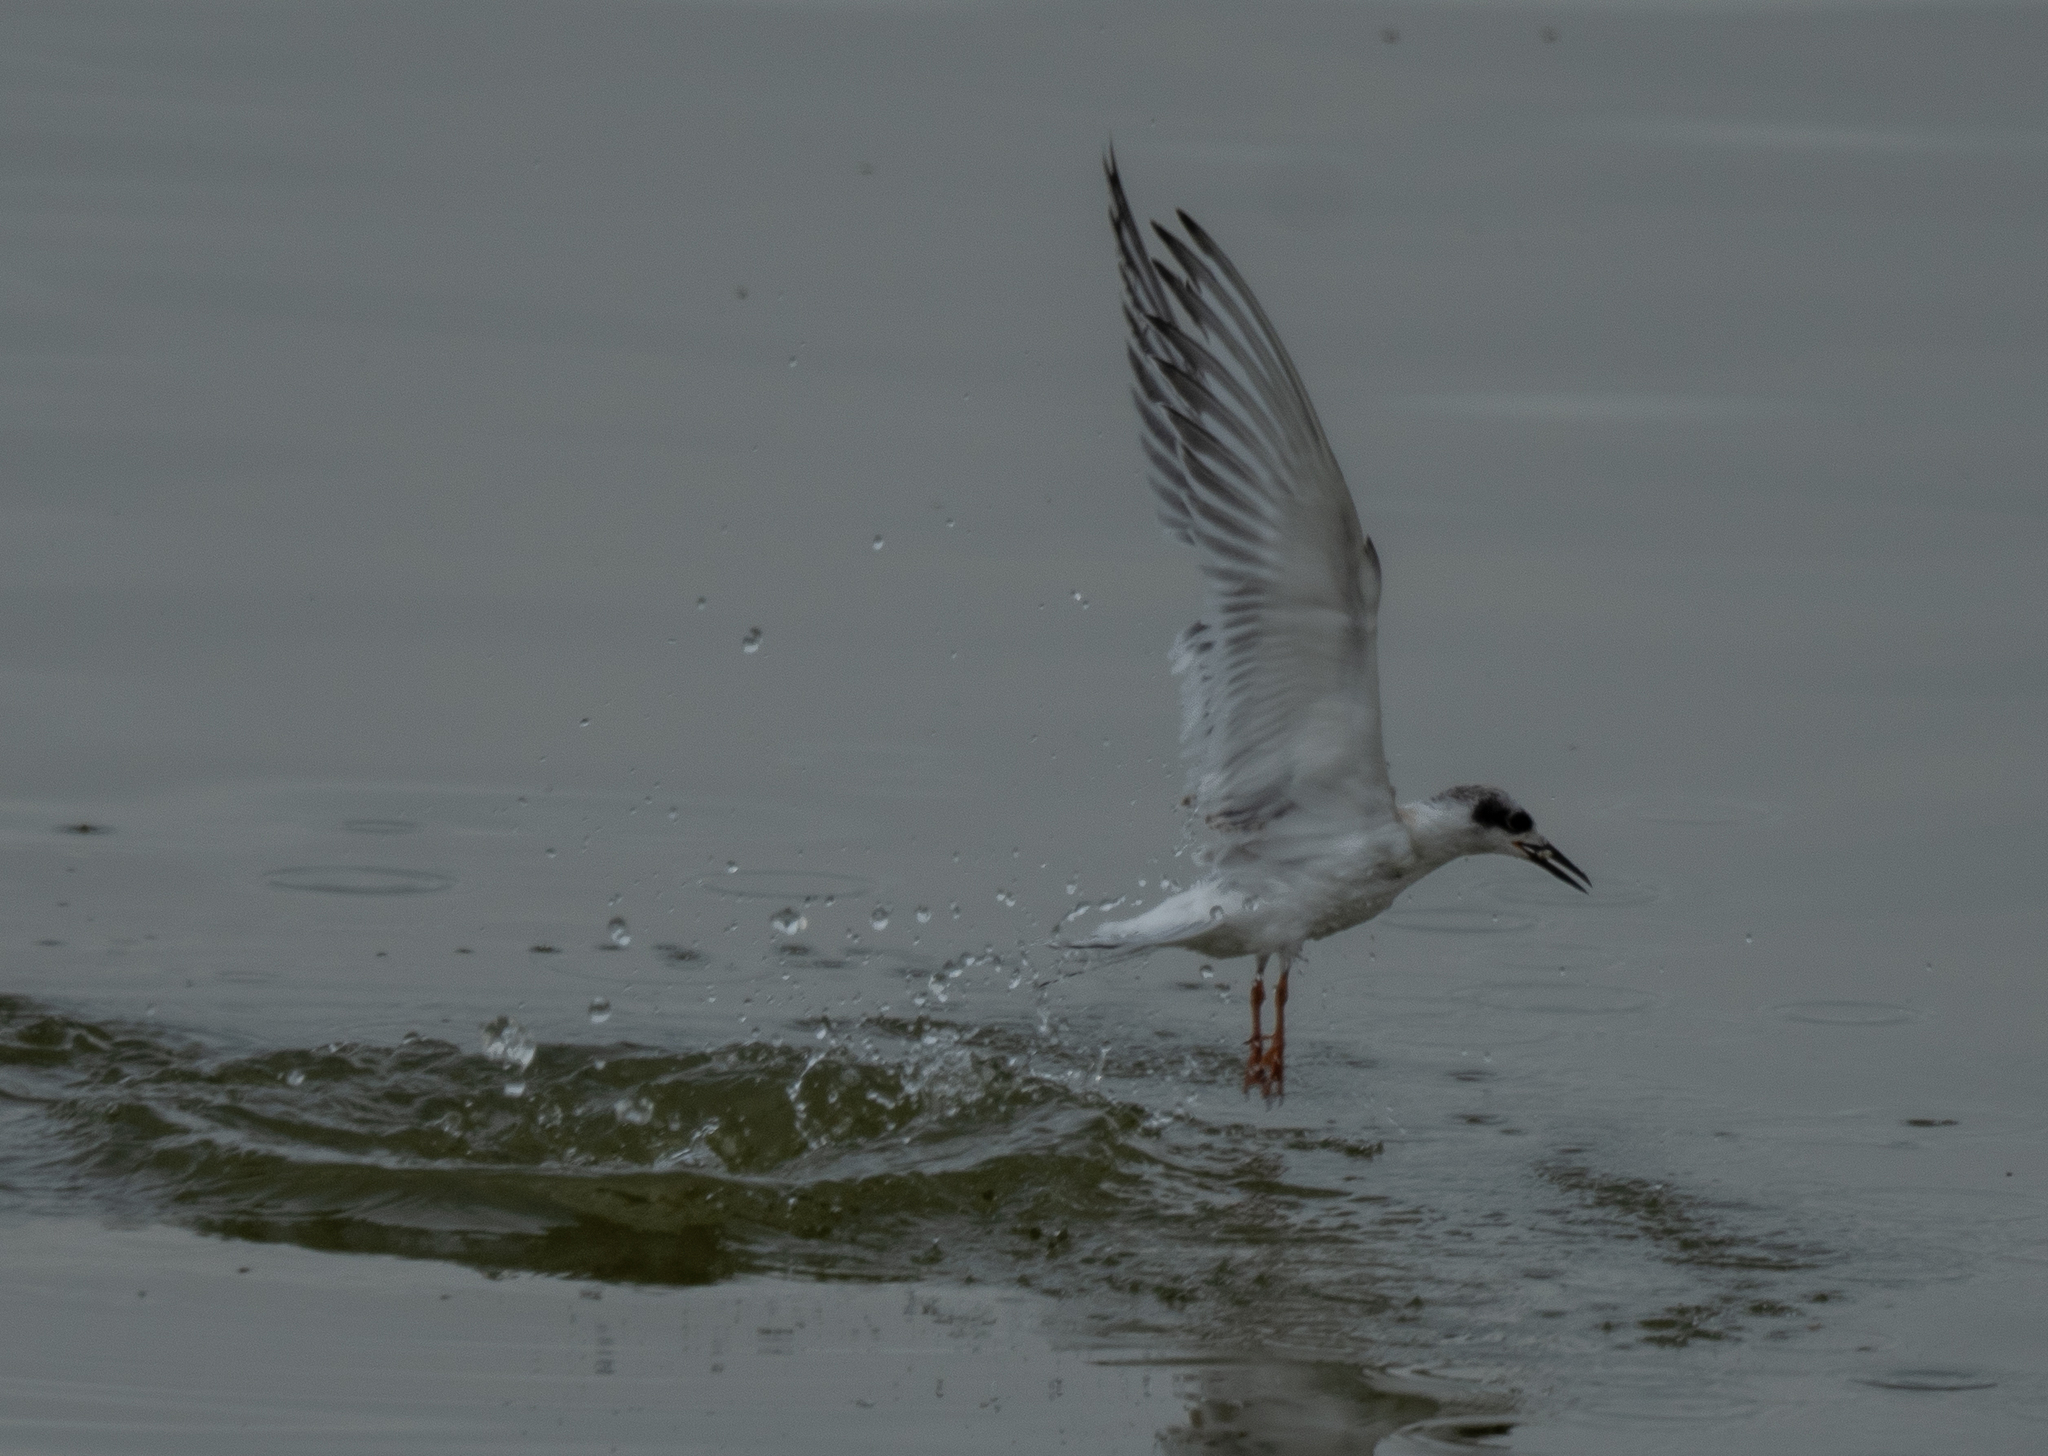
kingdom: Animalia
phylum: Chordata
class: Aves
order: Charadriiformes
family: Laridae
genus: Sterna
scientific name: Sterna forsteri
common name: Forster's tern
